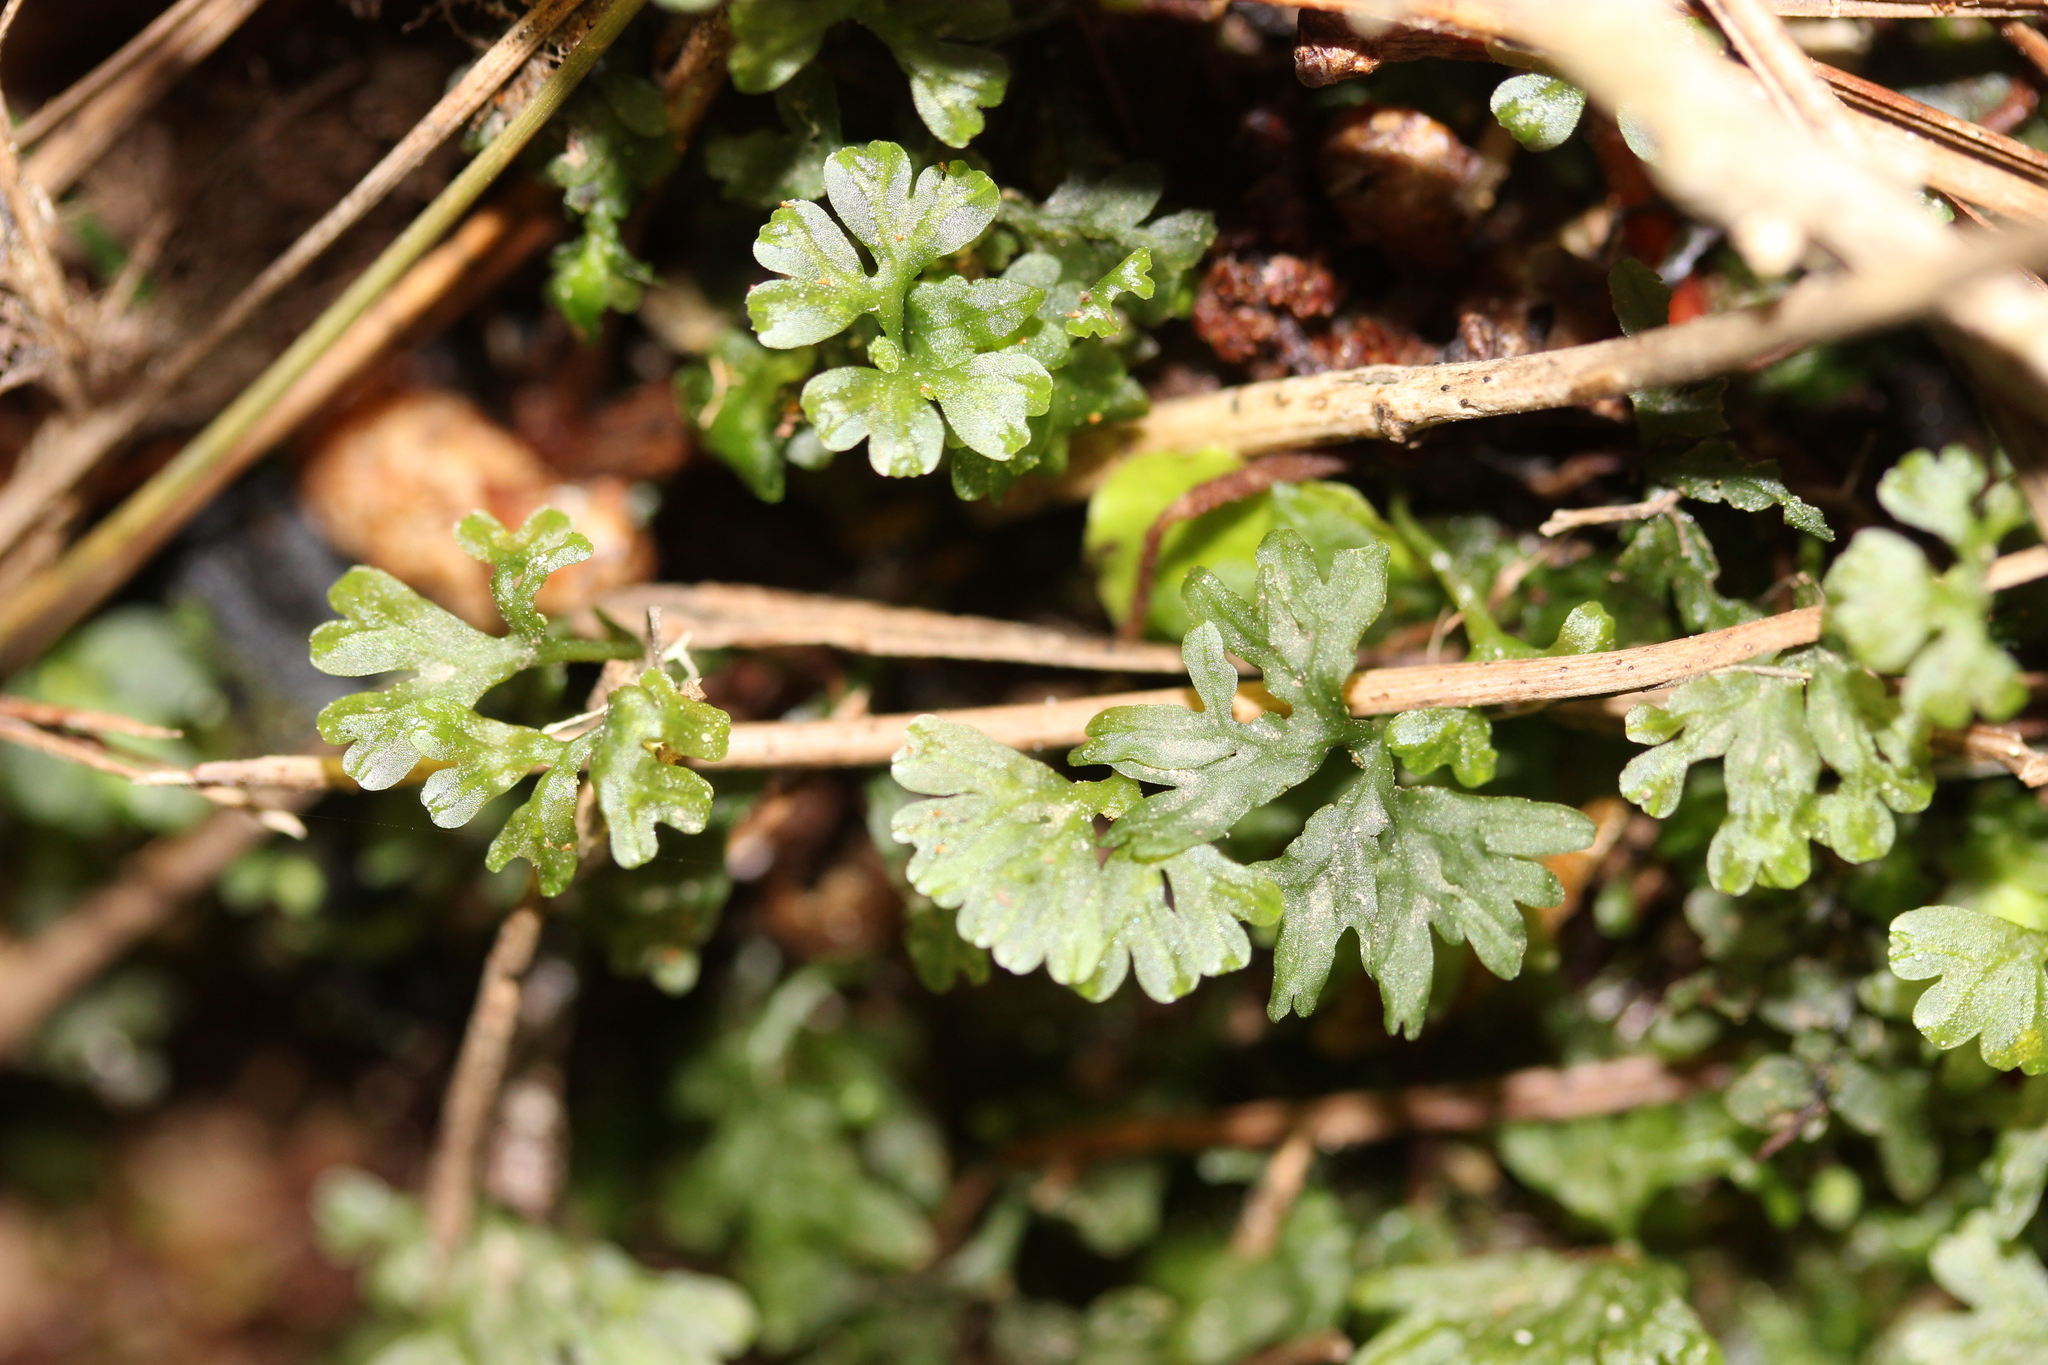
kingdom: Plantae
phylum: Marchantiophyta
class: Jungermanniopsida
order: Pallaviciniales
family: Hymenophytaceae
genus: Hymenophyton
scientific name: Hymenophyton flabellatum
